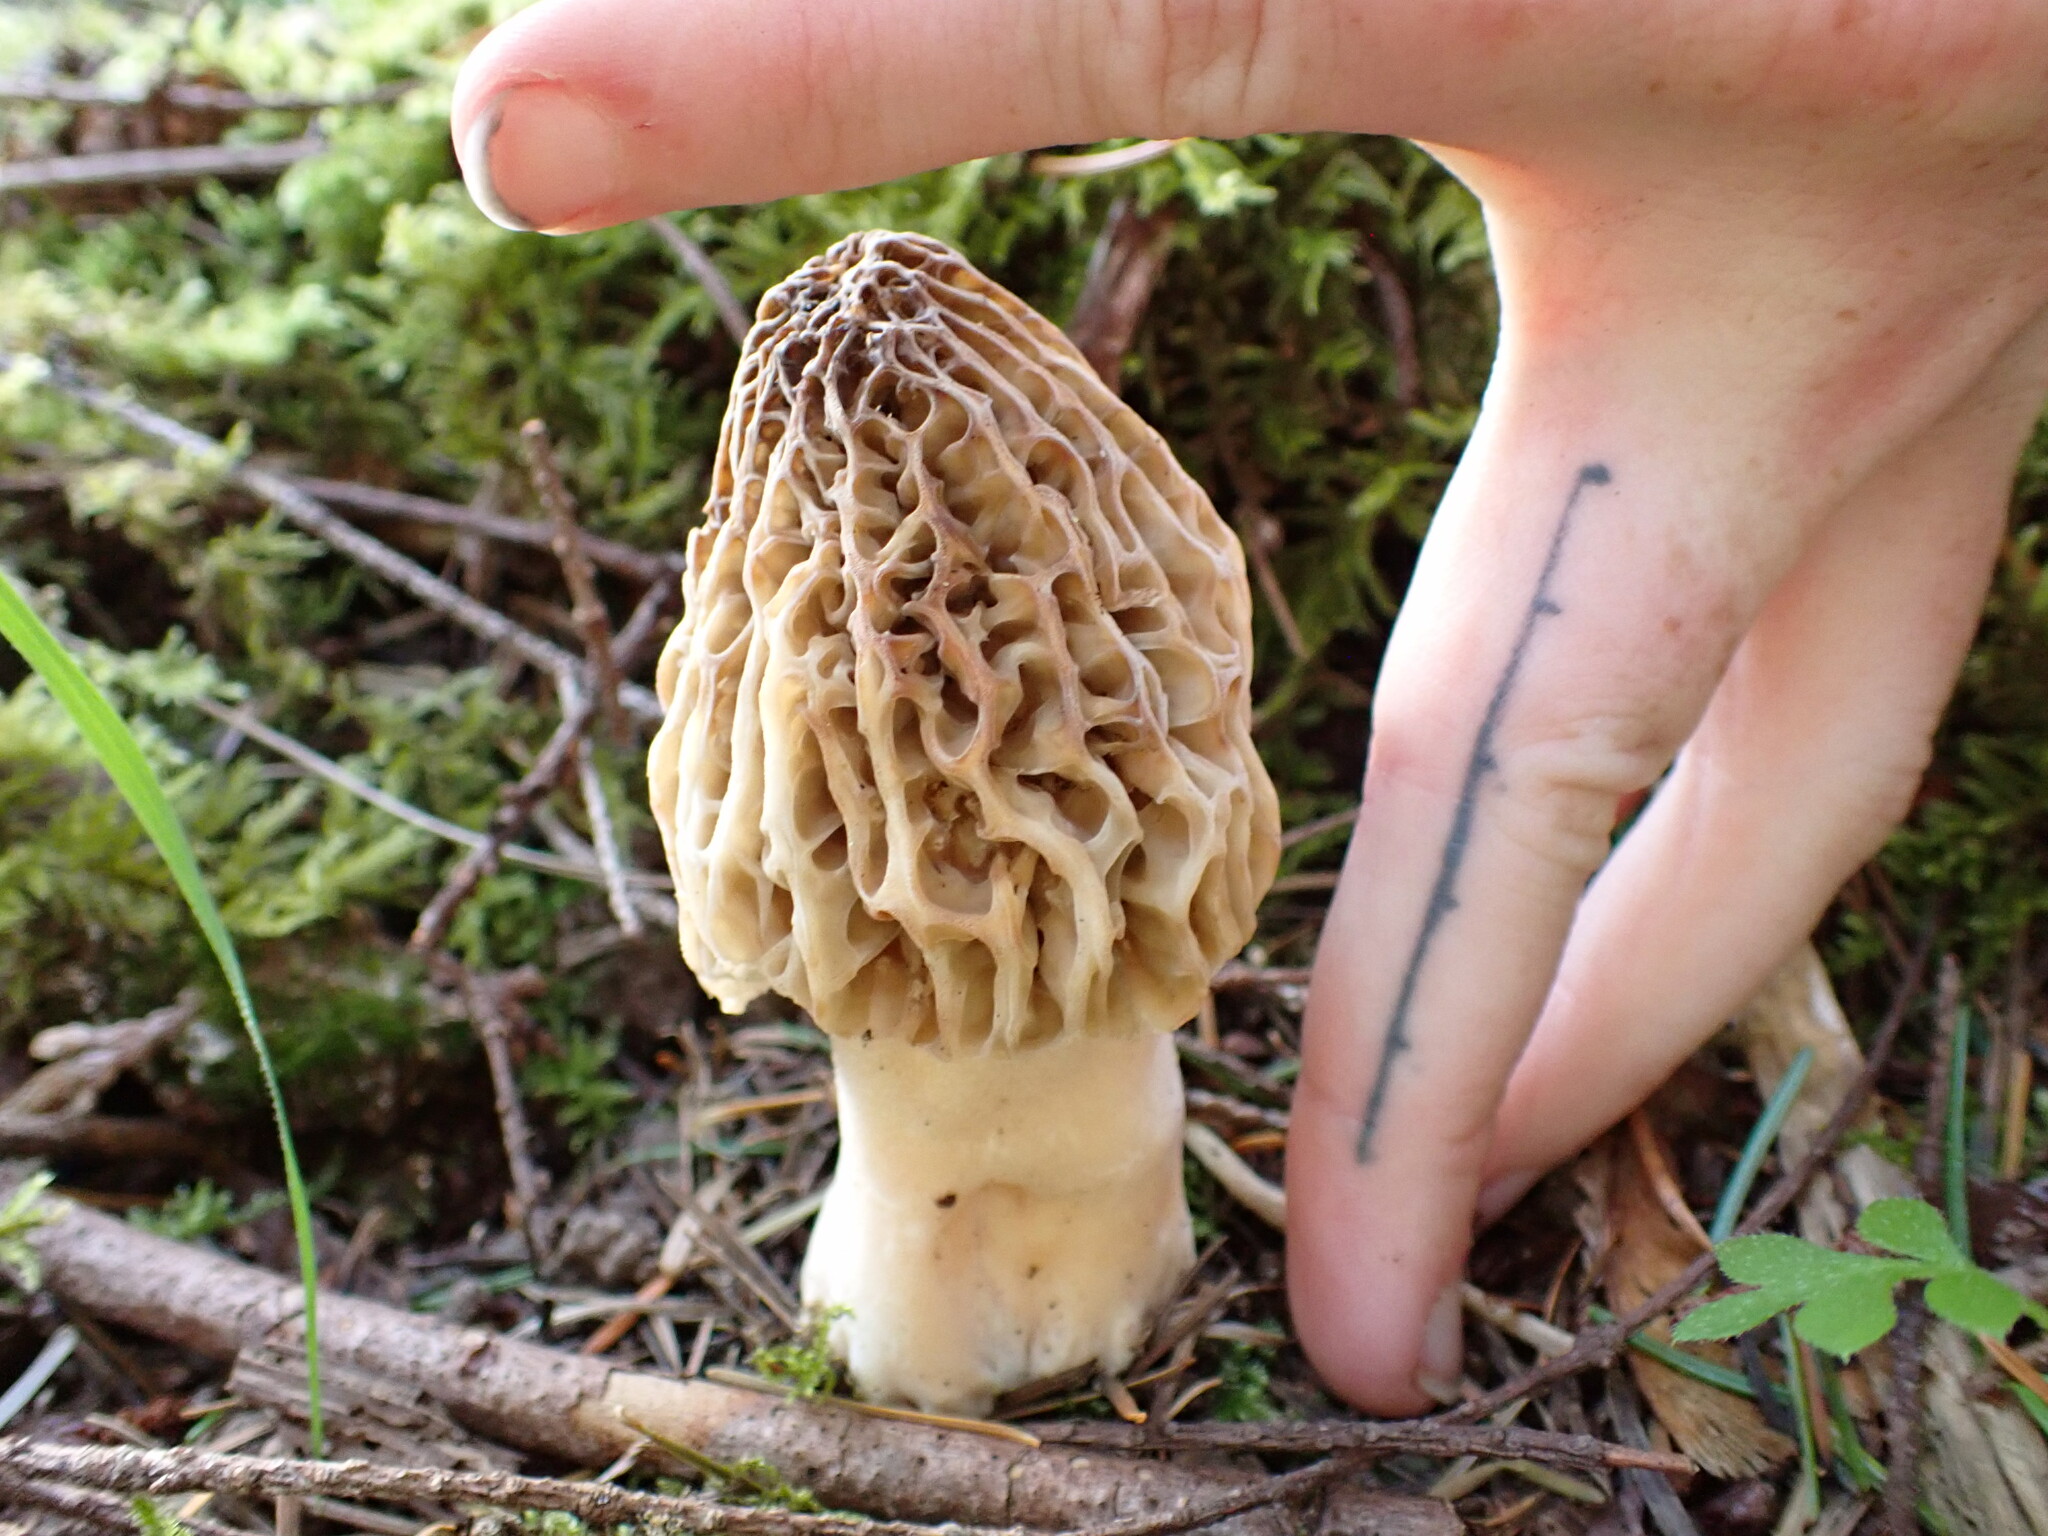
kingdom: Fungi
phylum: Ascomycota
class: Pezizomycetes
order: Pezizales
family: Morchellaceae
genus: Morchella
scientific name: Morchella tridentina
